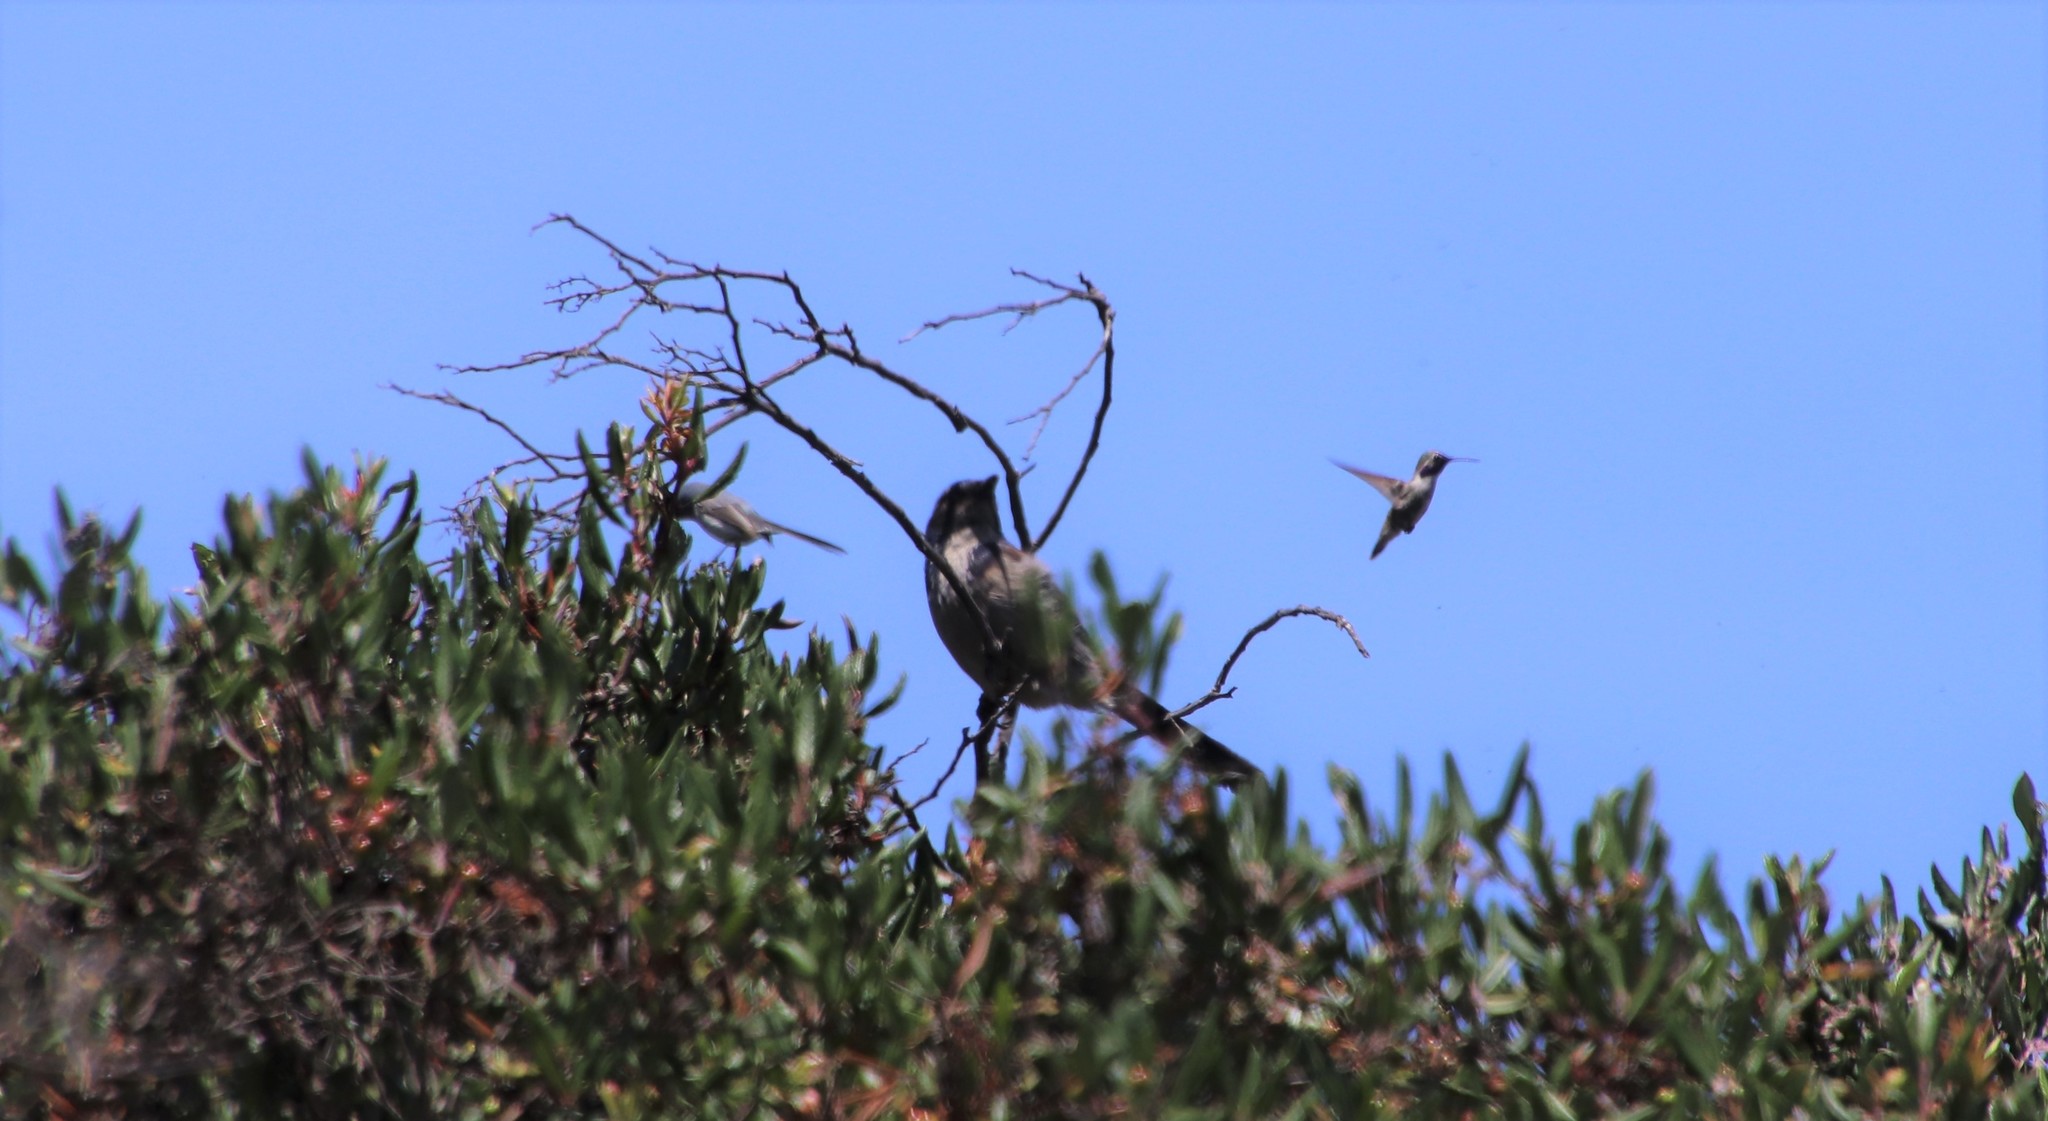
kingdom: Animalia
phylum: Chordata
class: Aves
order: Passeriformes
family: Corvidae
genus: Aphelocoma
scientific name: Aphelocoma californica
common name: California scrub-jay
